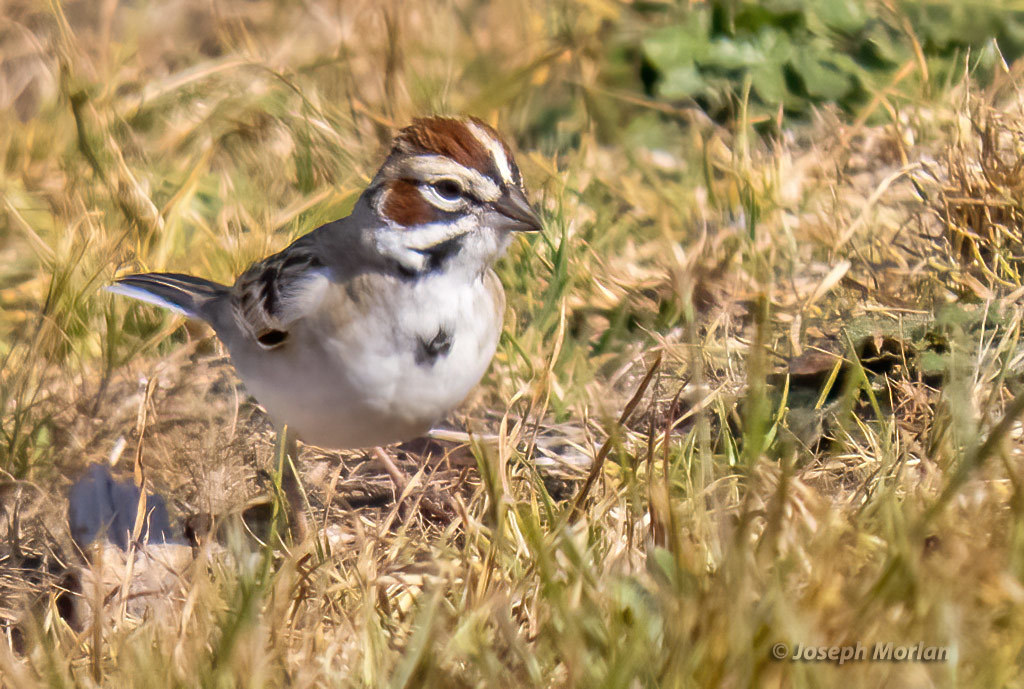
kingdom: Animalia
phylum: Chordata
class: Aves
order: Passeriformes
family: Passerellidae
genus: Chondestes
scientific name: Chondestes grammacus
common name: Lark sparrow
